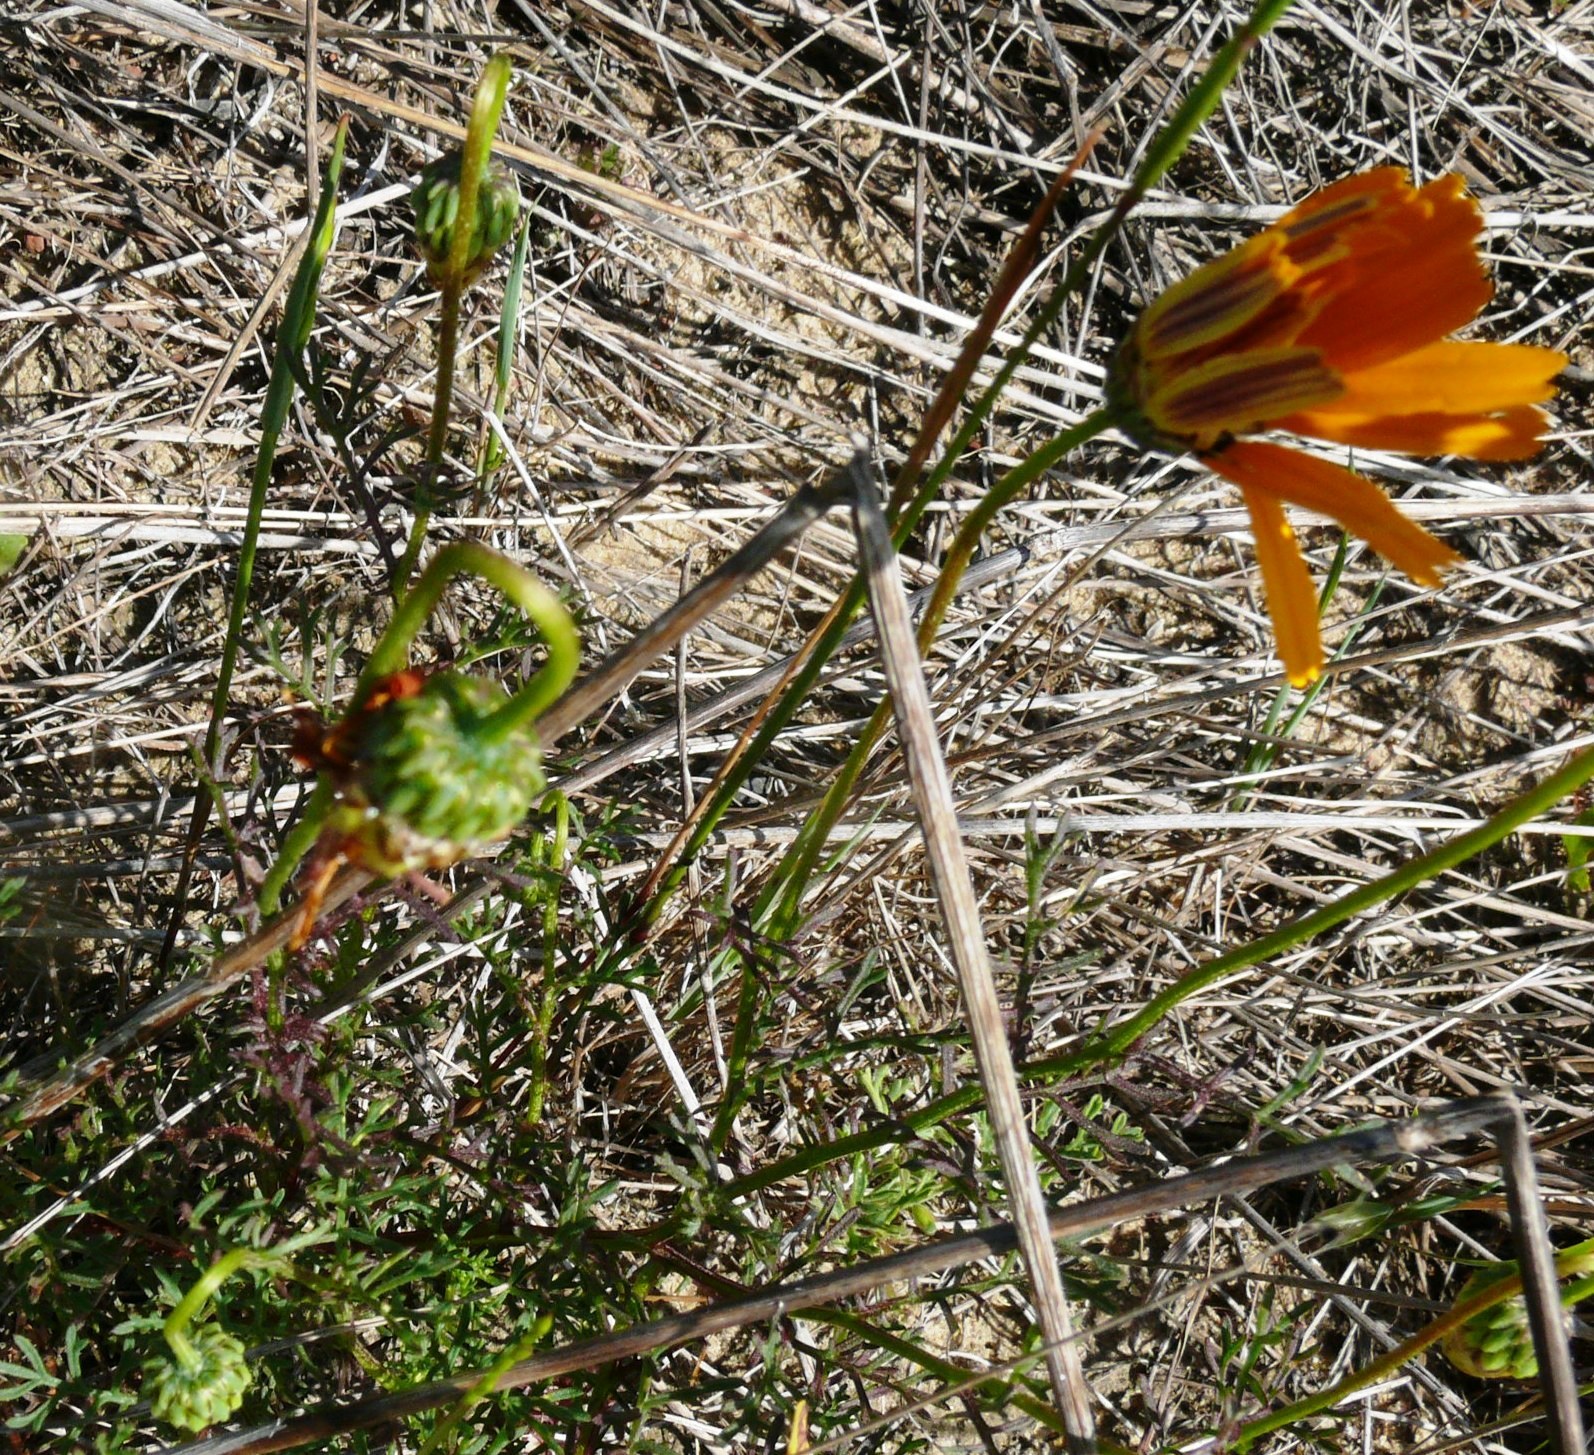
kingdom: Plantae
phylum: Tracheophyta
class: Magnoliopsida
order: Asterales
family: Asteraceae
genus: Ursinia
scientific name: Ursinia anthemoides
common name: Ursinia
